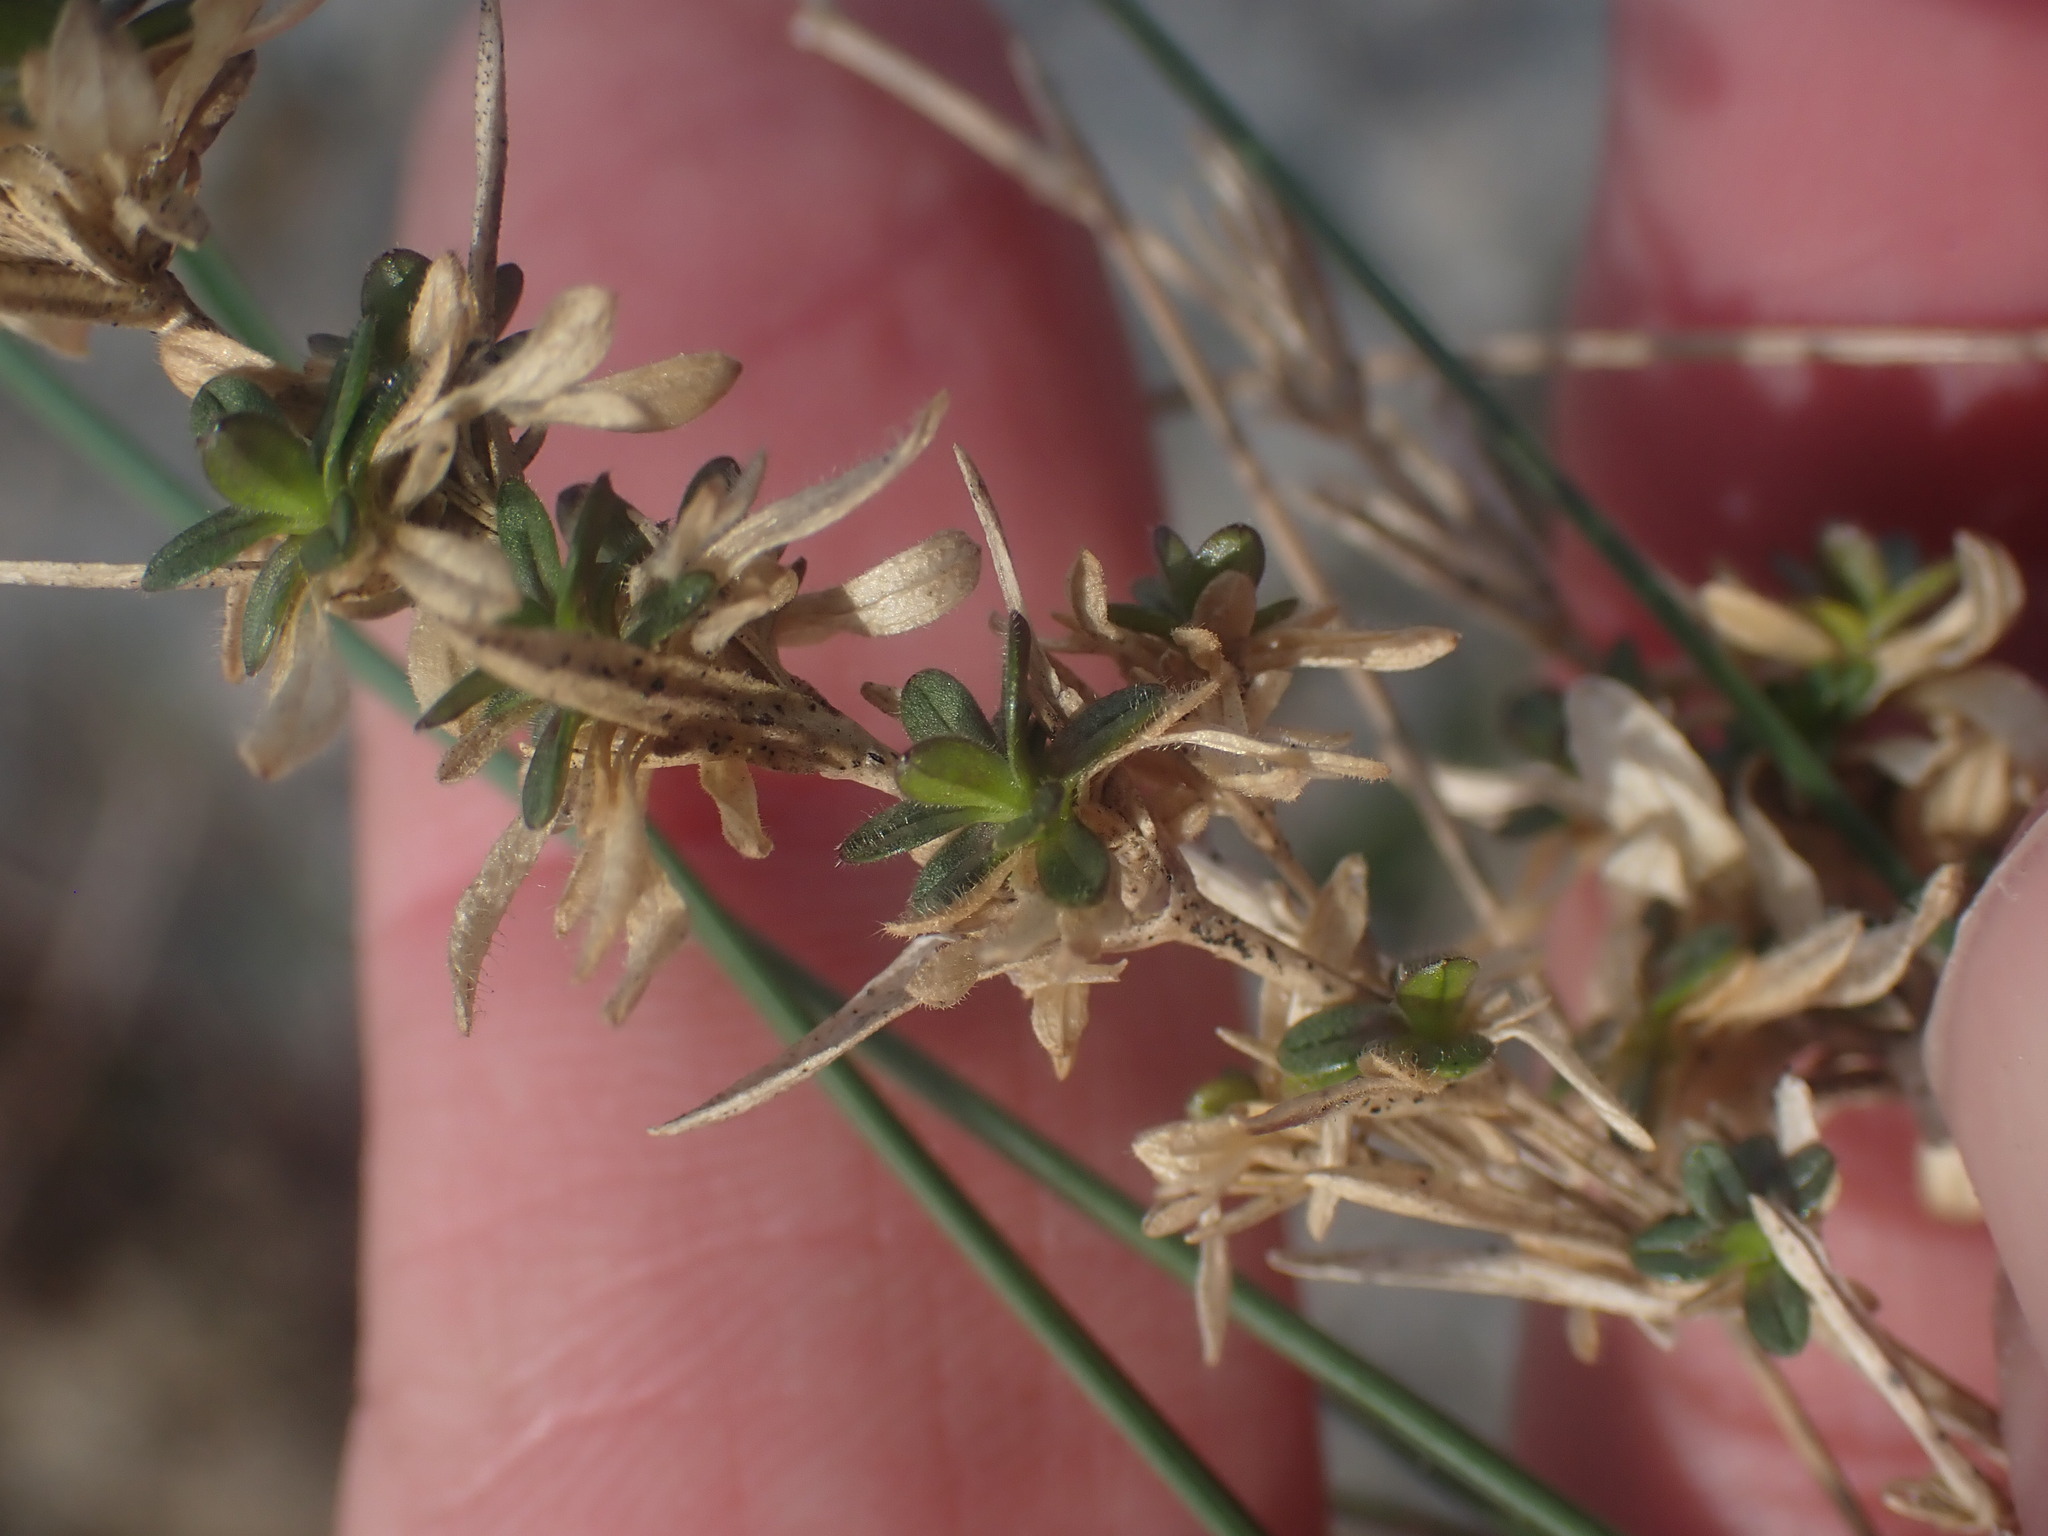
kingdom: Plantae
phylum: Tracheophyta
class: Magnoliopsida
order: Caryophyllales
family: Caryophyllaceae
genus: Cerastium
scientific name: Cerastium arvense
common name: Field mouse-ear
